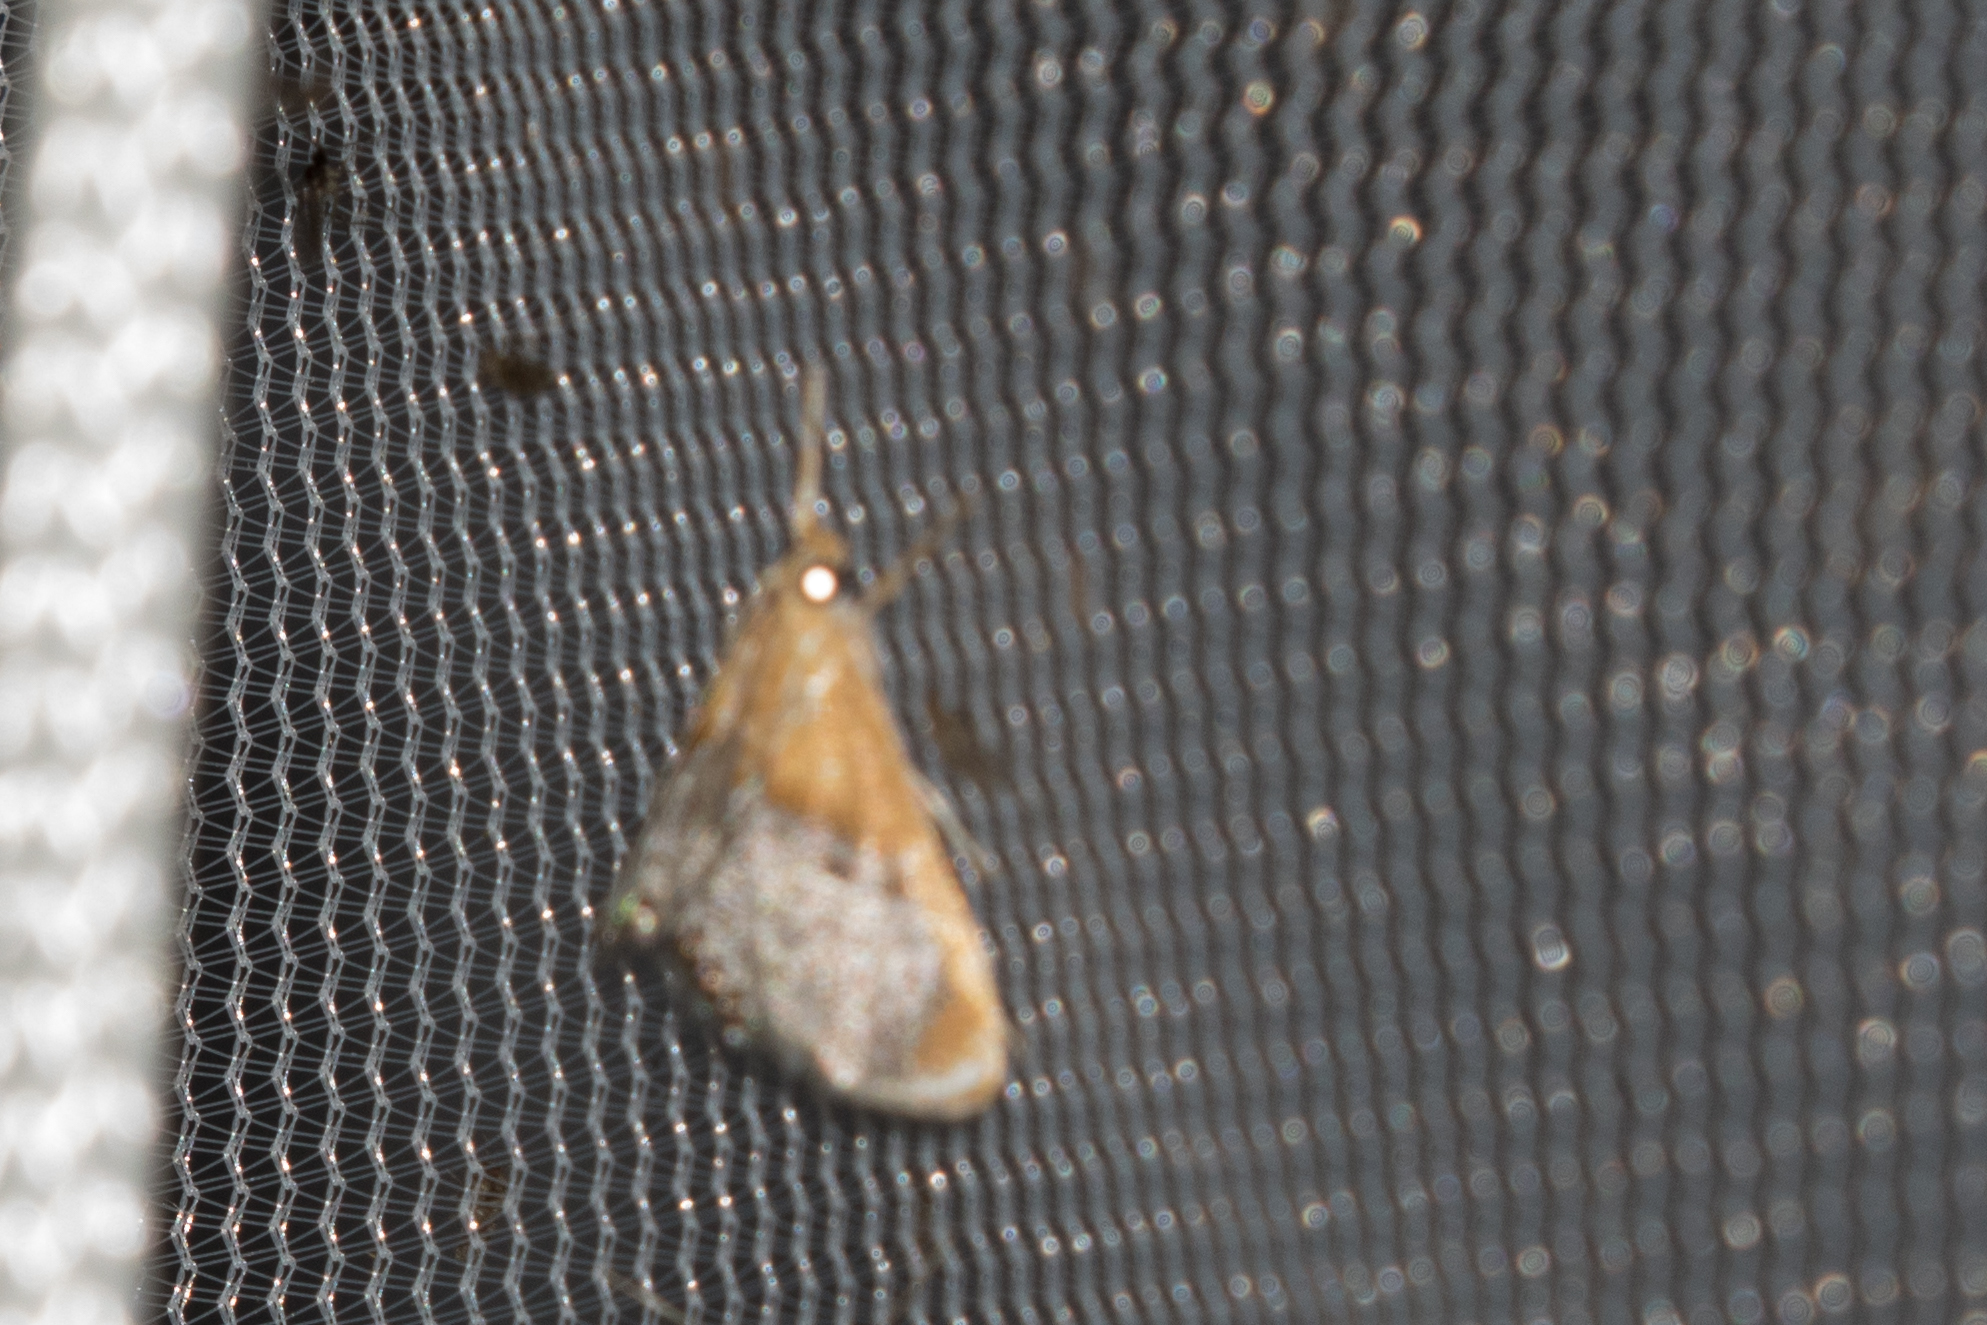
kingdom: Animalia
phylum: Arthropoda
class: Insecta
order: Lepidoptera
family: Crambidae
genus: Chalcoela
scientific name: Chalcoela iphitalis
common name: Sooty-winged chalcoela moth
